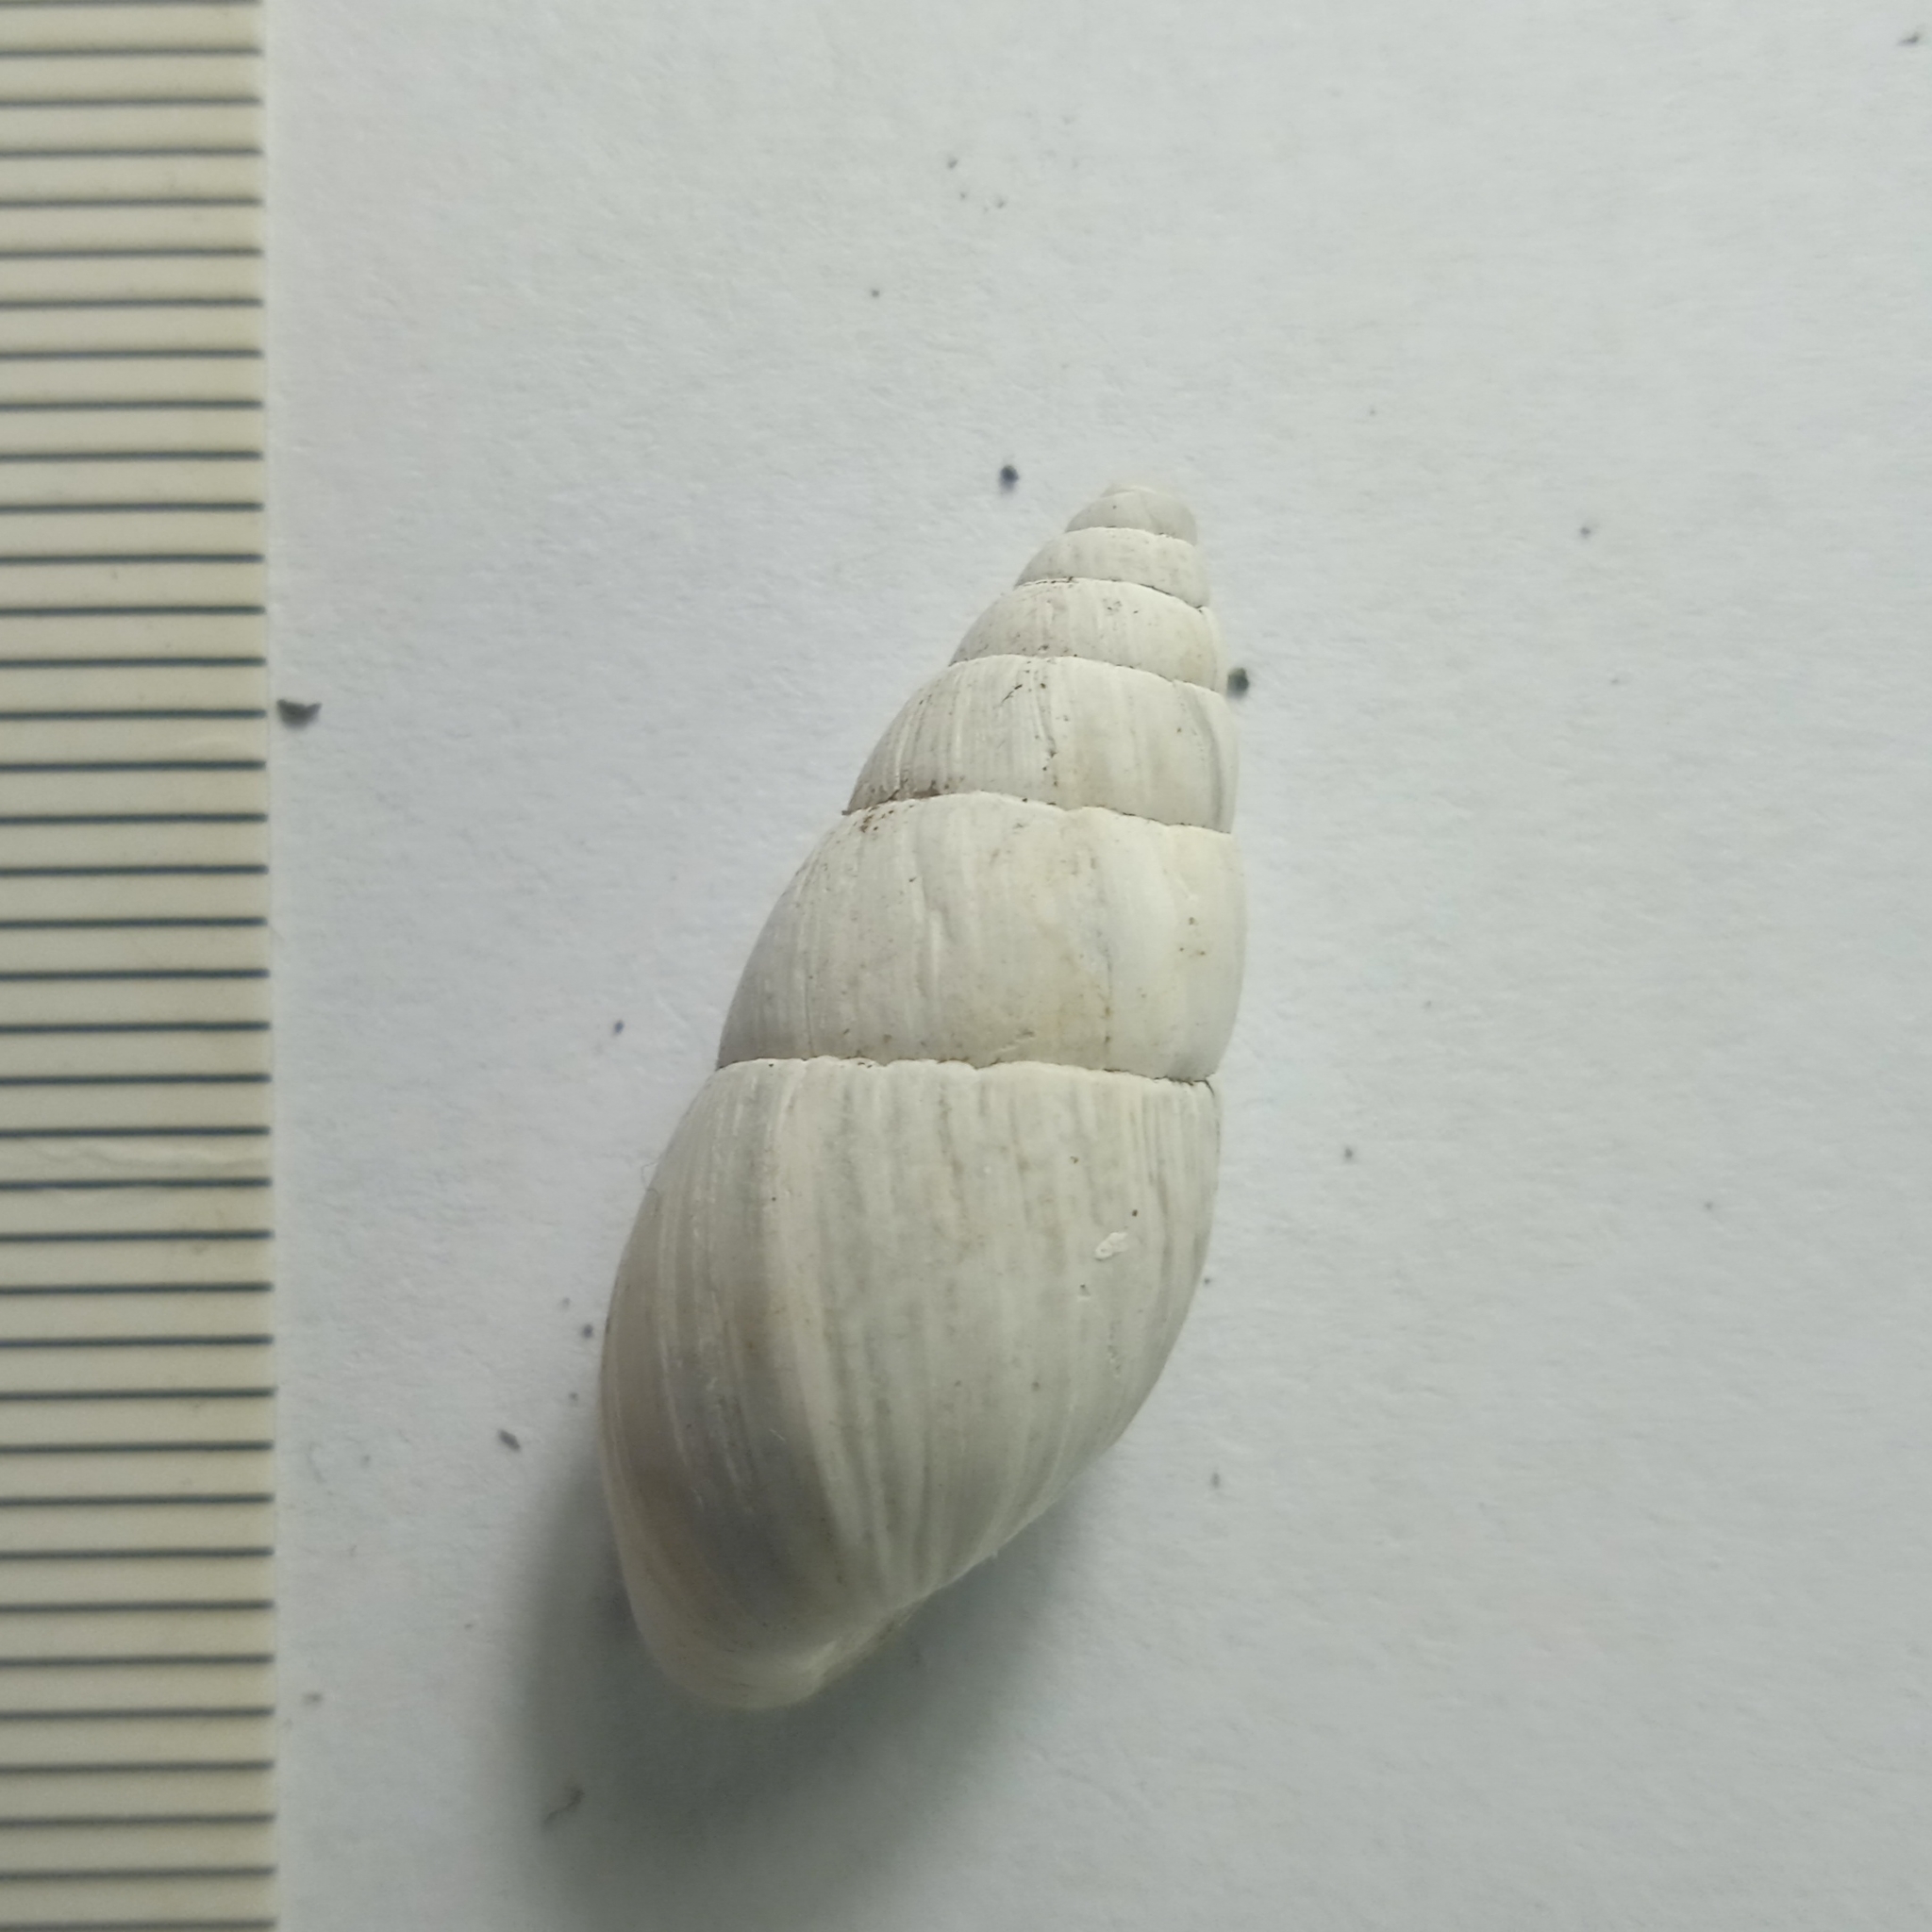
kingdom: Animalia
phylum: Mollusca
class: Gastropoda
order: Stylommatophora
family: Enidae
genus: Zebrina
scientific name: Zebrina detrita
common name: Large bulin
